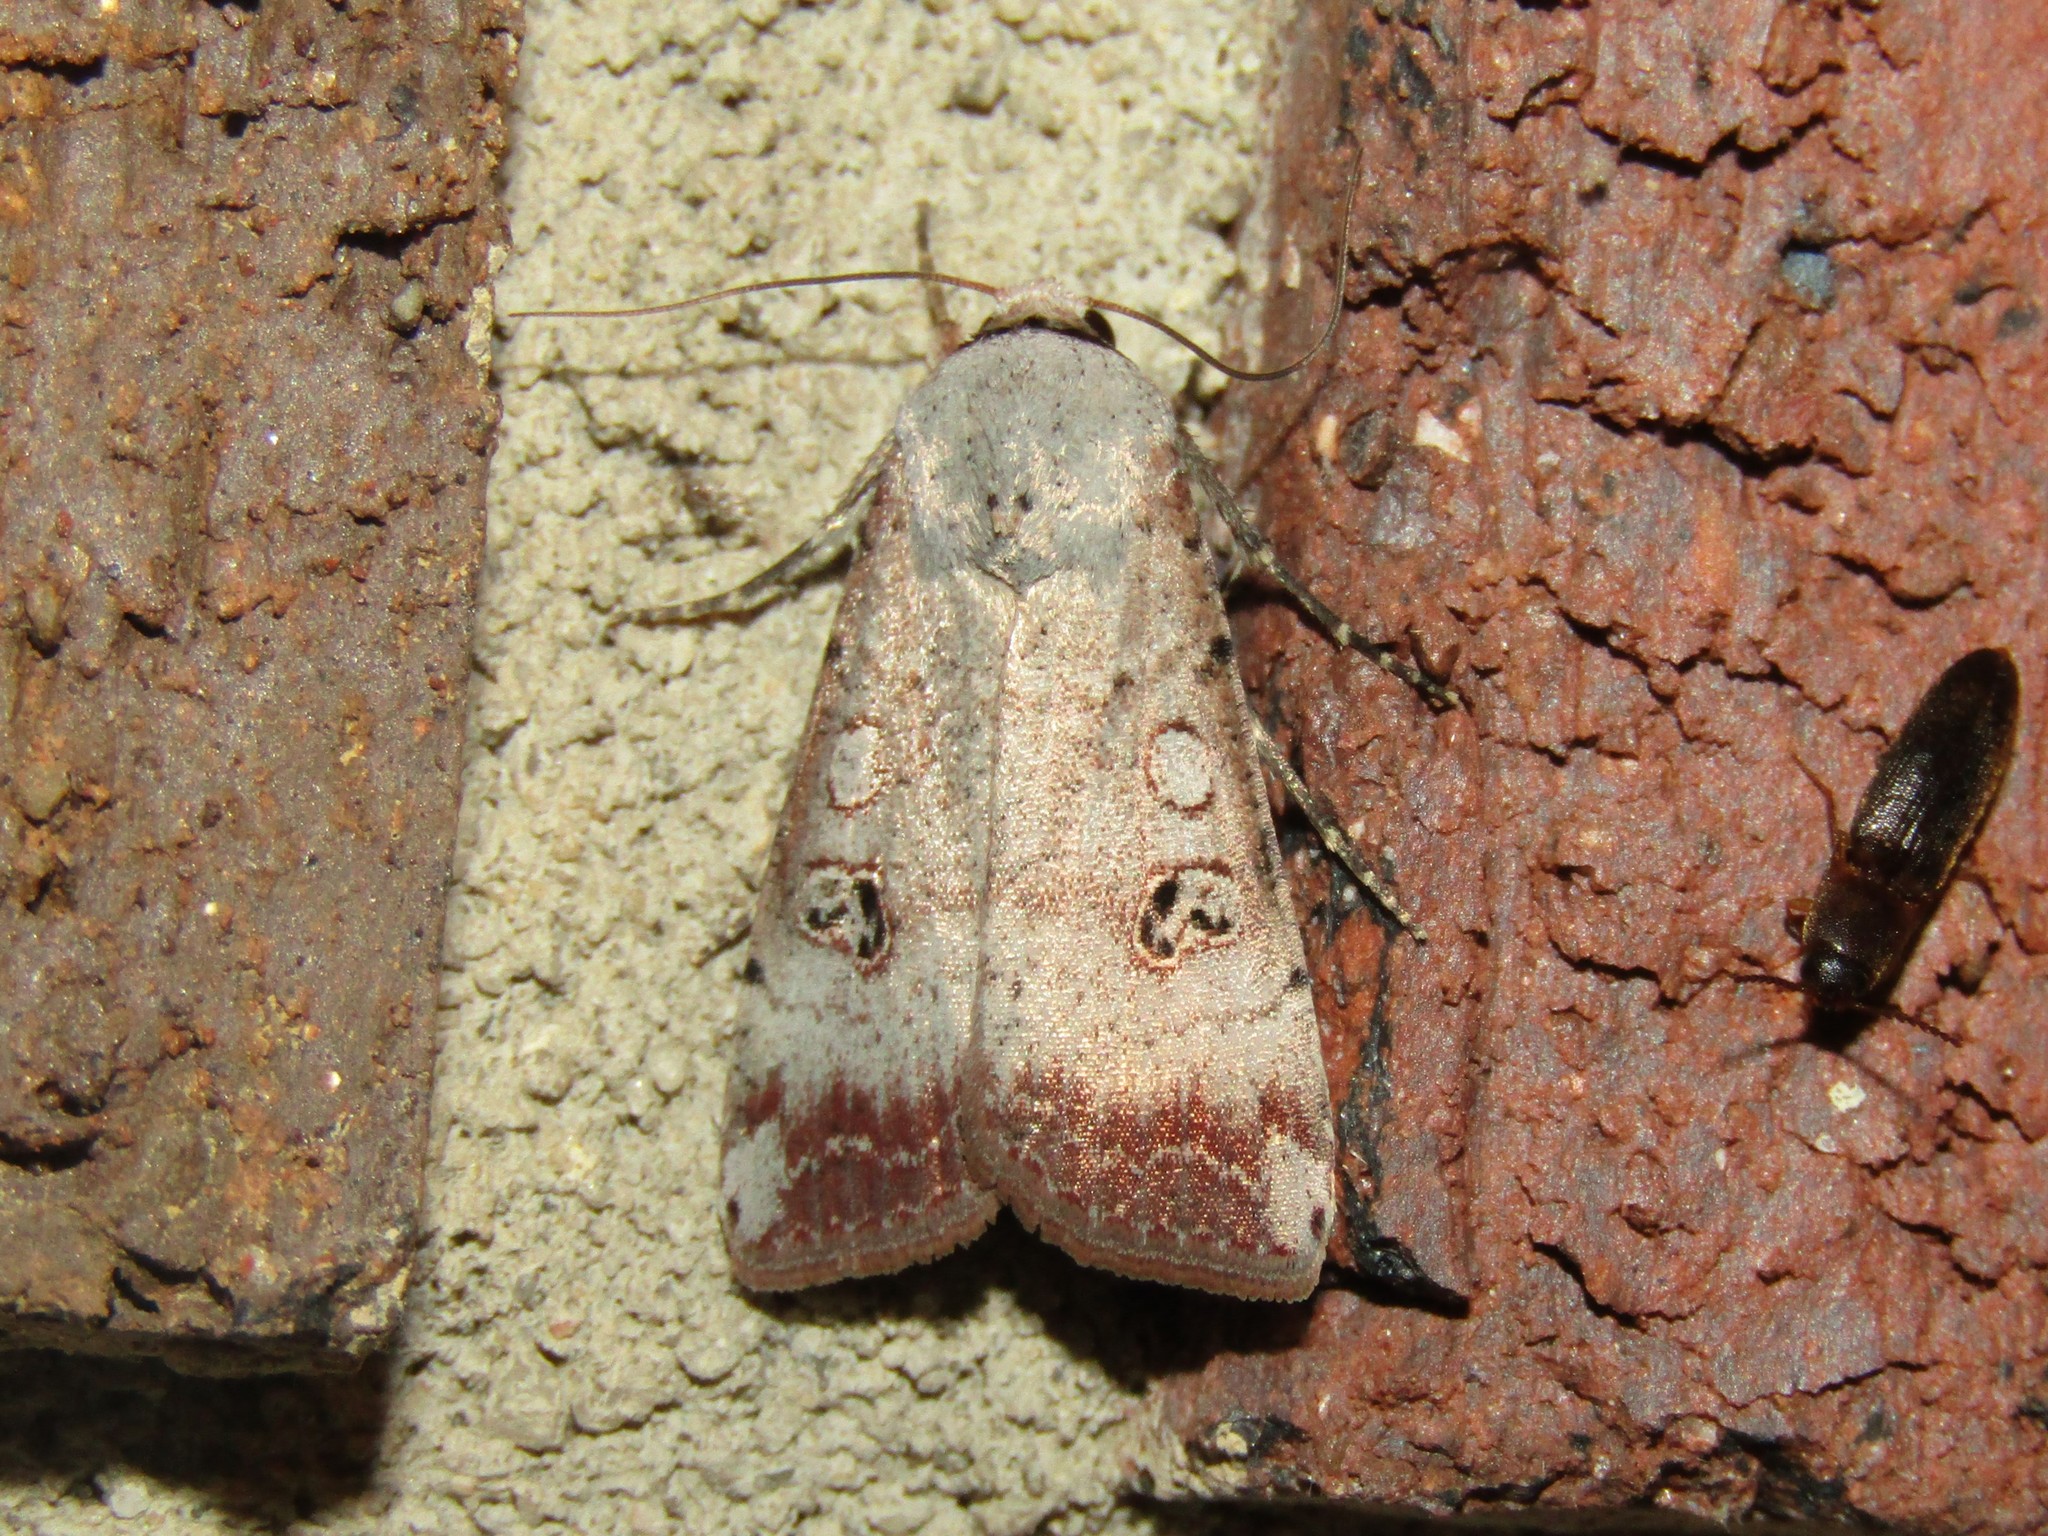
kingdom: Animalia
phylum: Arthropoda
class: Insecta
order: Lepidoptera
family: Noctuidae
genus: Anicla
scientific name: Anicla infecta
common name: Green cutworm
